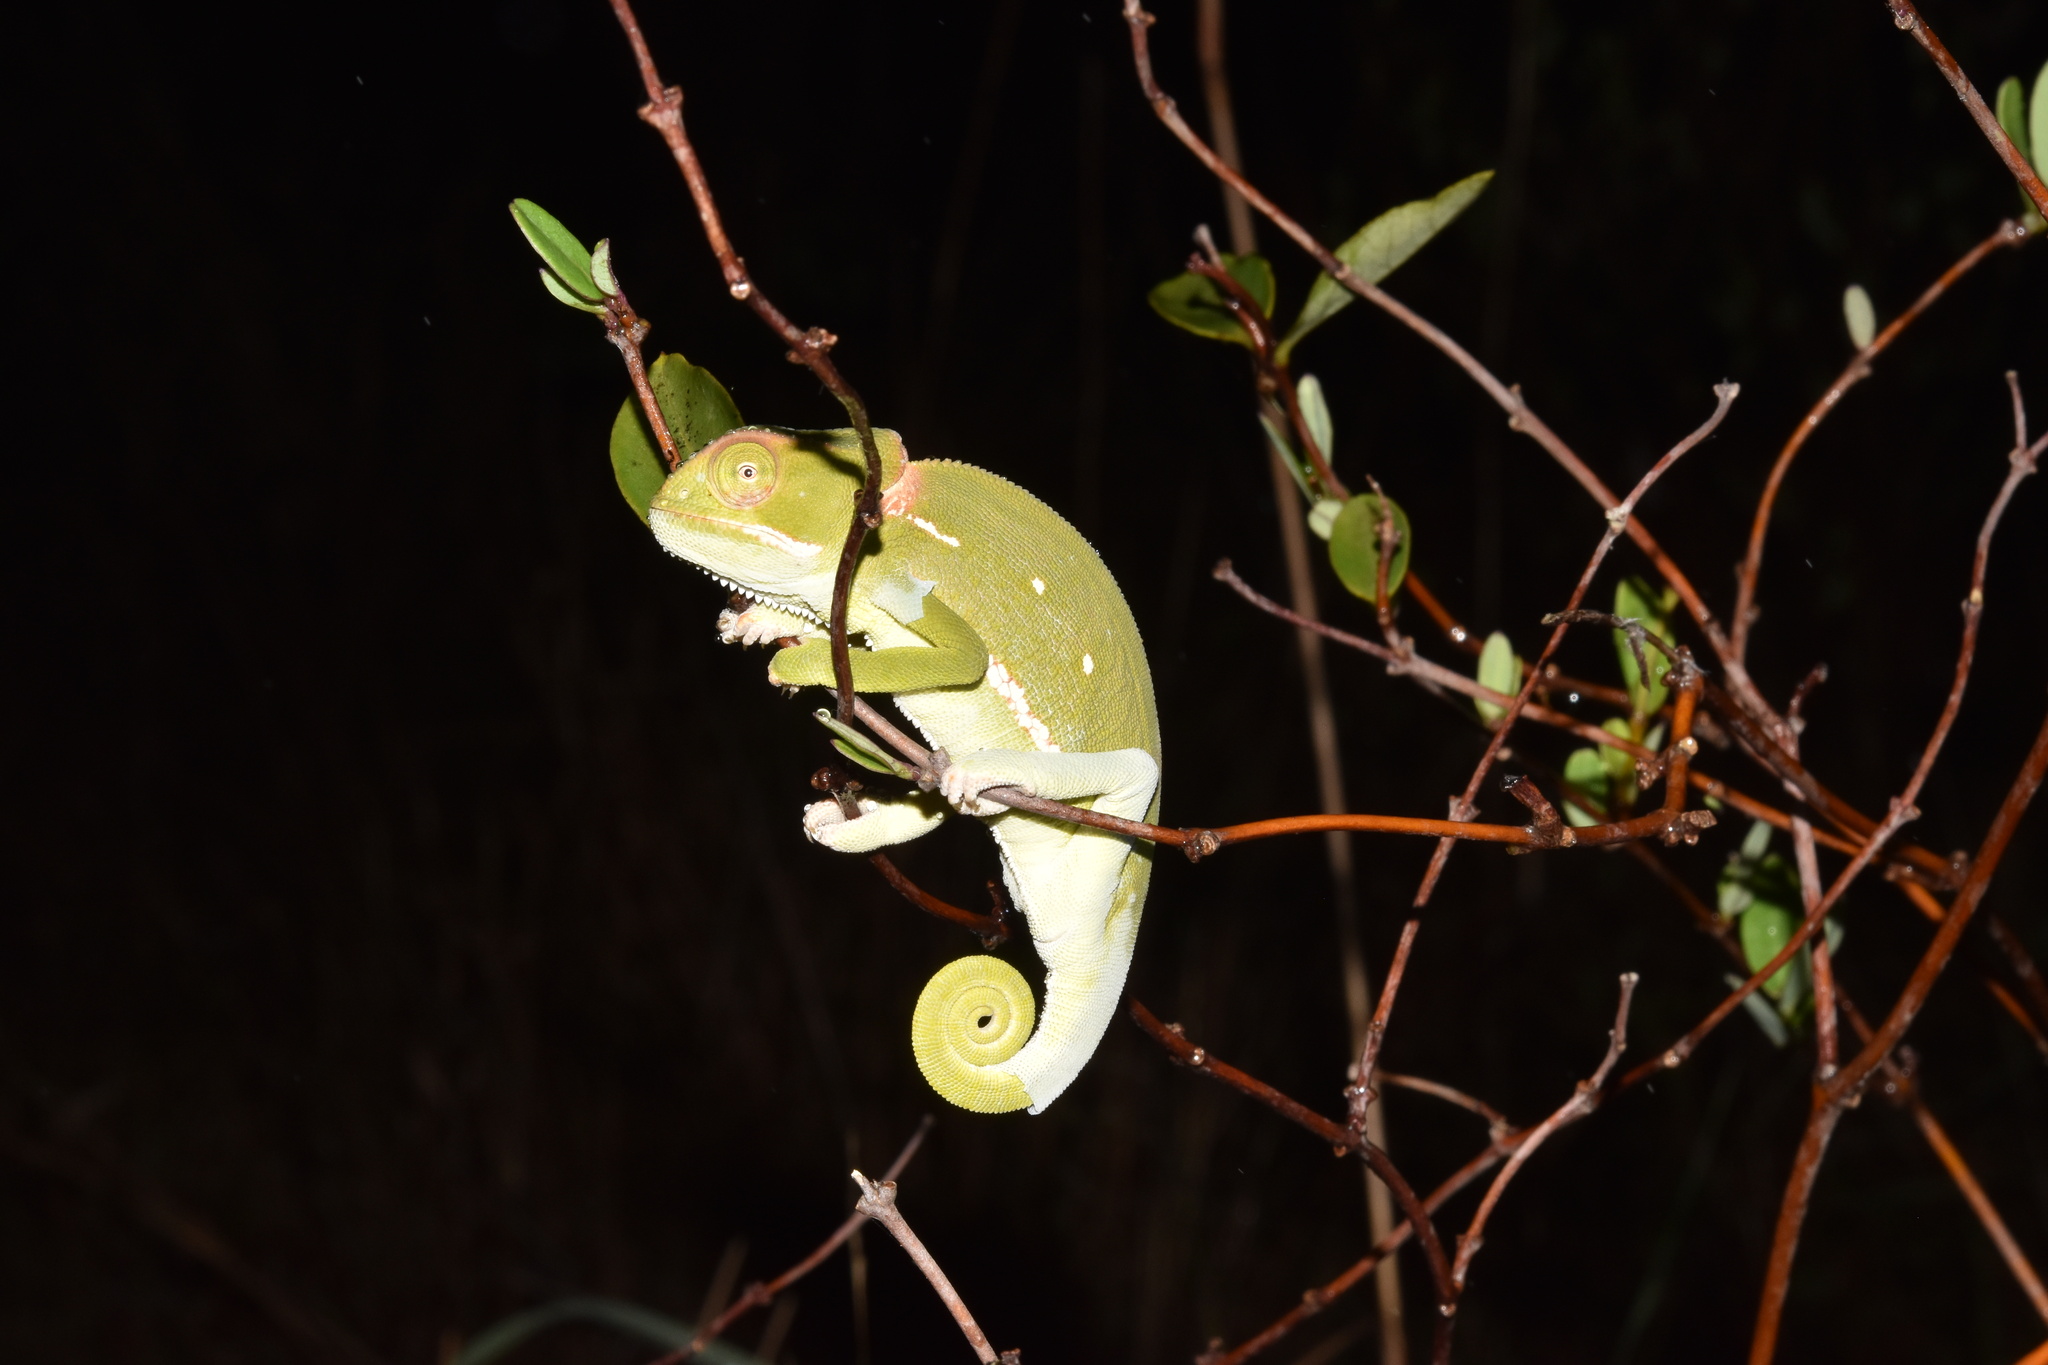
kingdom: Animalia
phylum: Chordata
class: Squamata
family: Chamaeleonidae
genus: Chamaeleo
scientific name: Chamaeleo dilepis
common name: Flapneck chameleon
